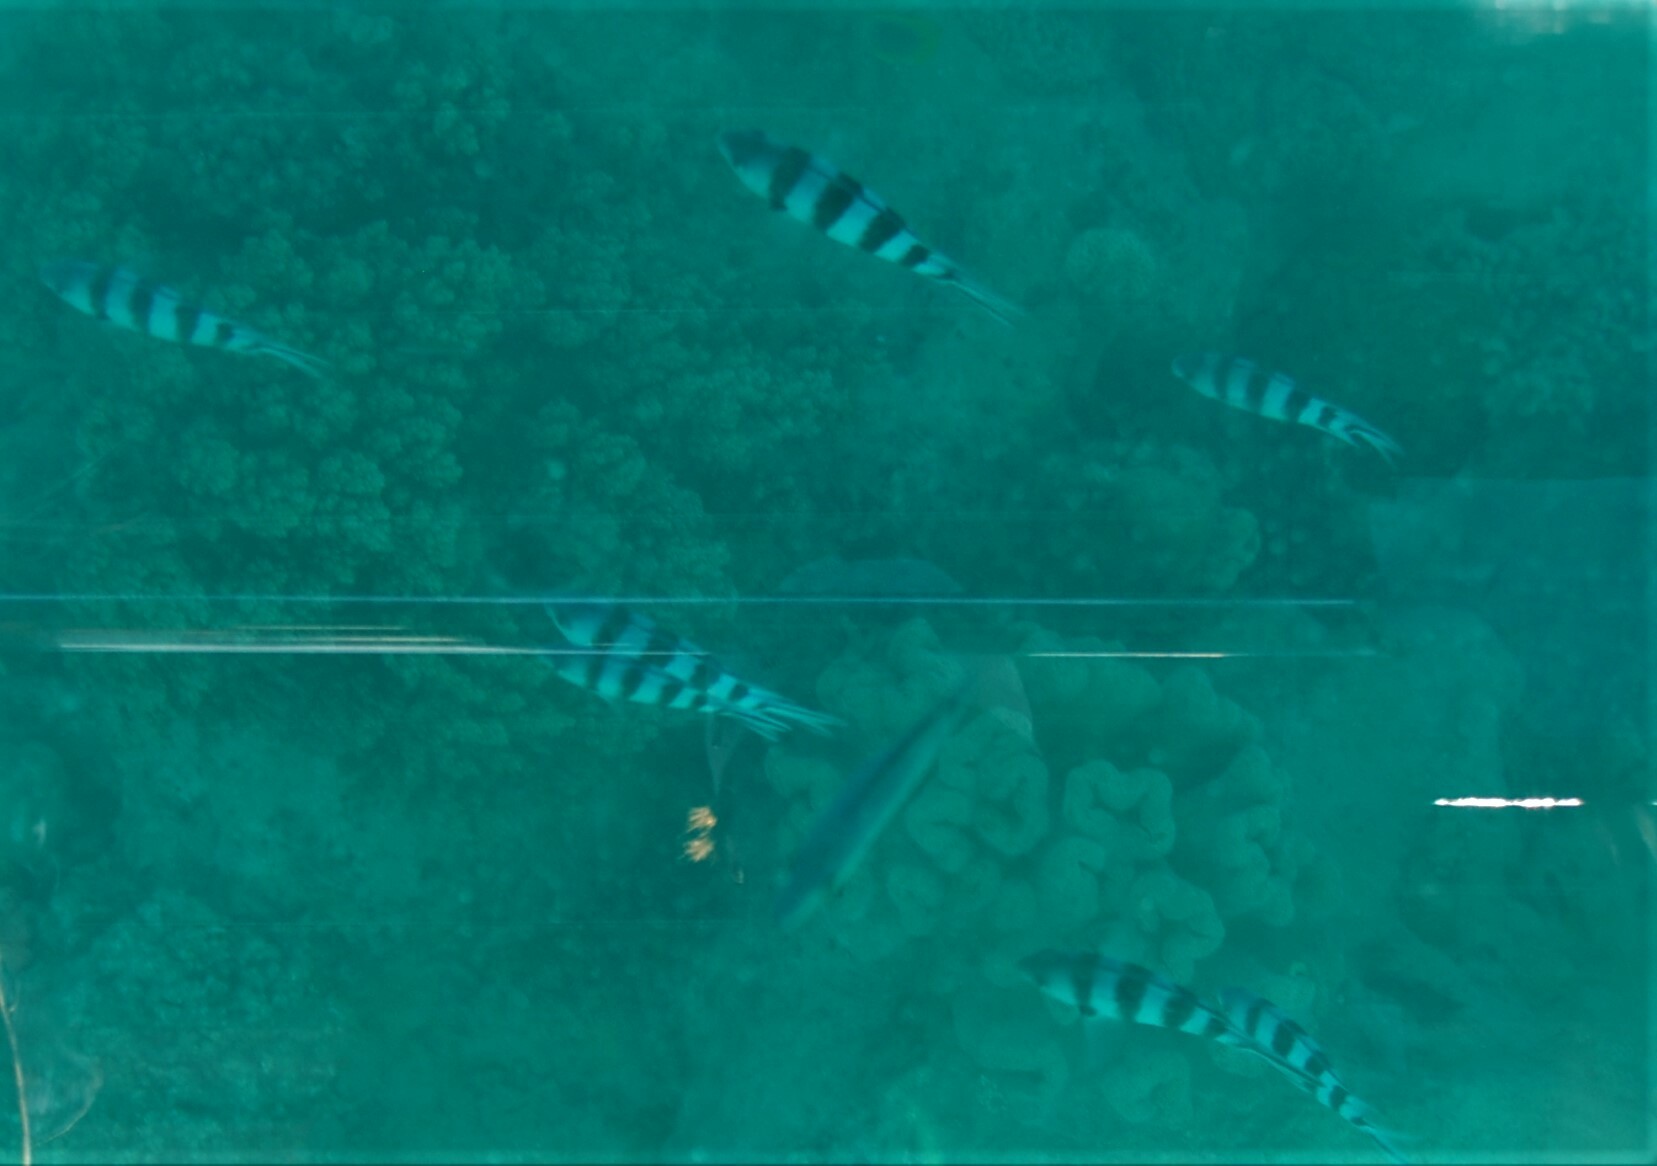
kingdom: Animalia
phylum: Chordata
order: Perciformes
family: Pomacentridae
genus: Abudefduf
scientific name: Abudefduf sexfasciatus
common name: Scissortail sergeant
